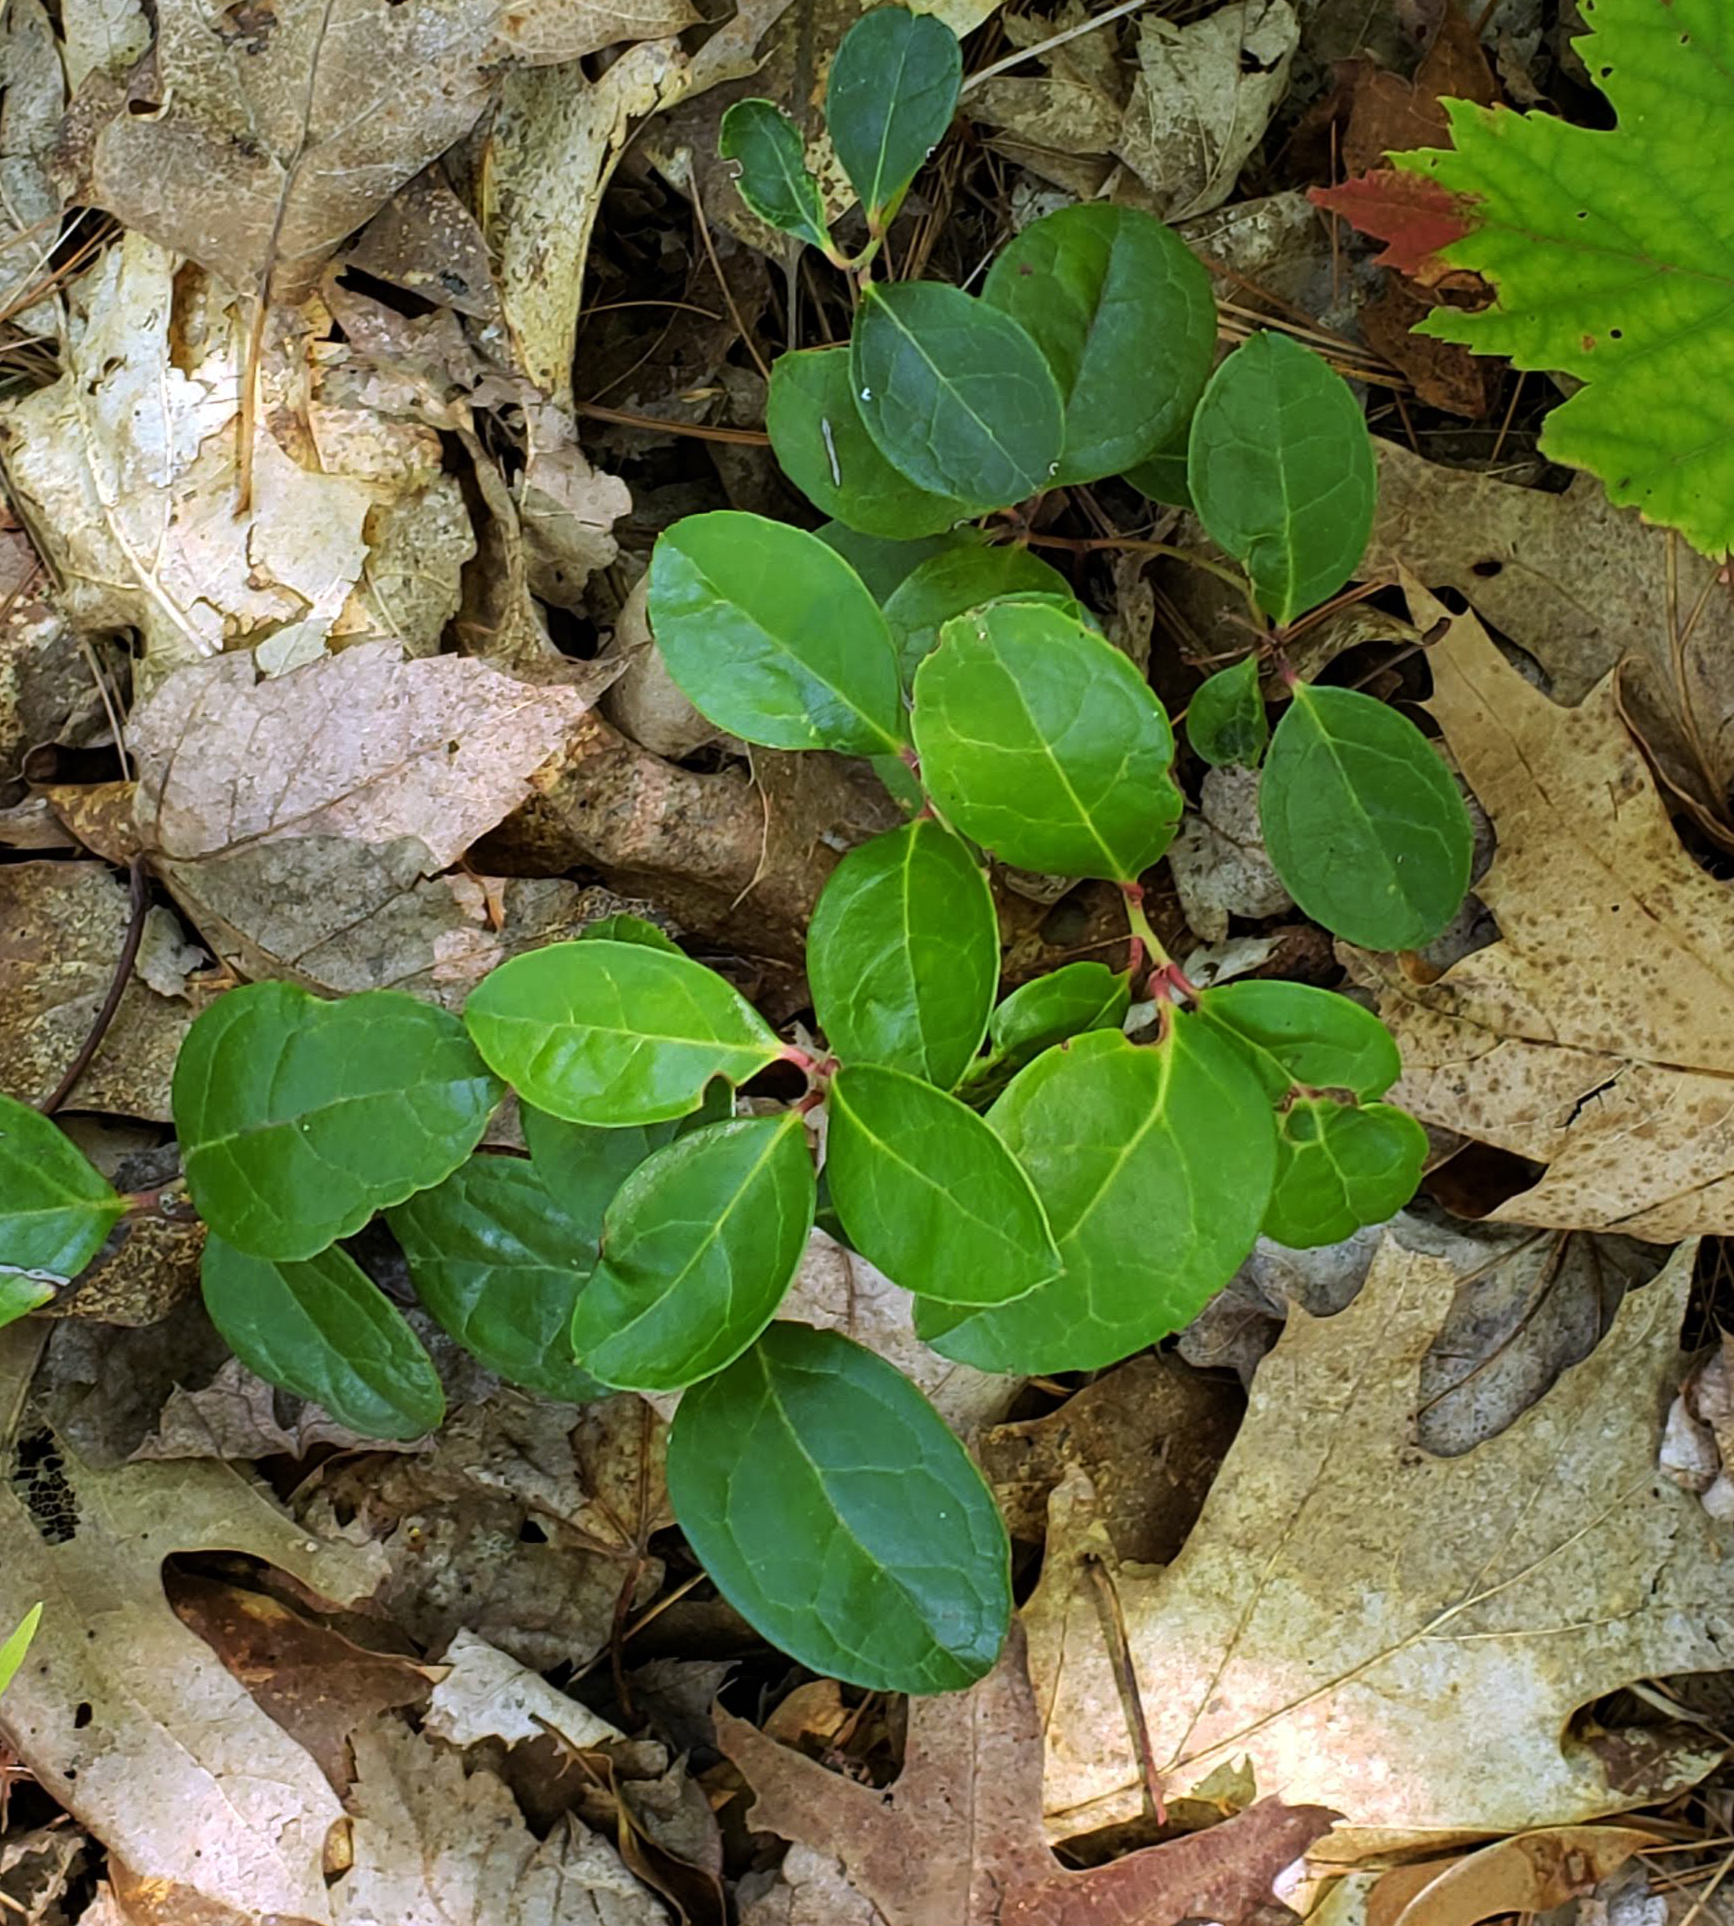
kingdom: Plantae
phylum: Tracheophyta
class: Magnoliopsida
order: Ericales
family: Ericaceae
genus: Gaultheria
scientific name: Gaultheria procumbens
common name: Checkerberry
